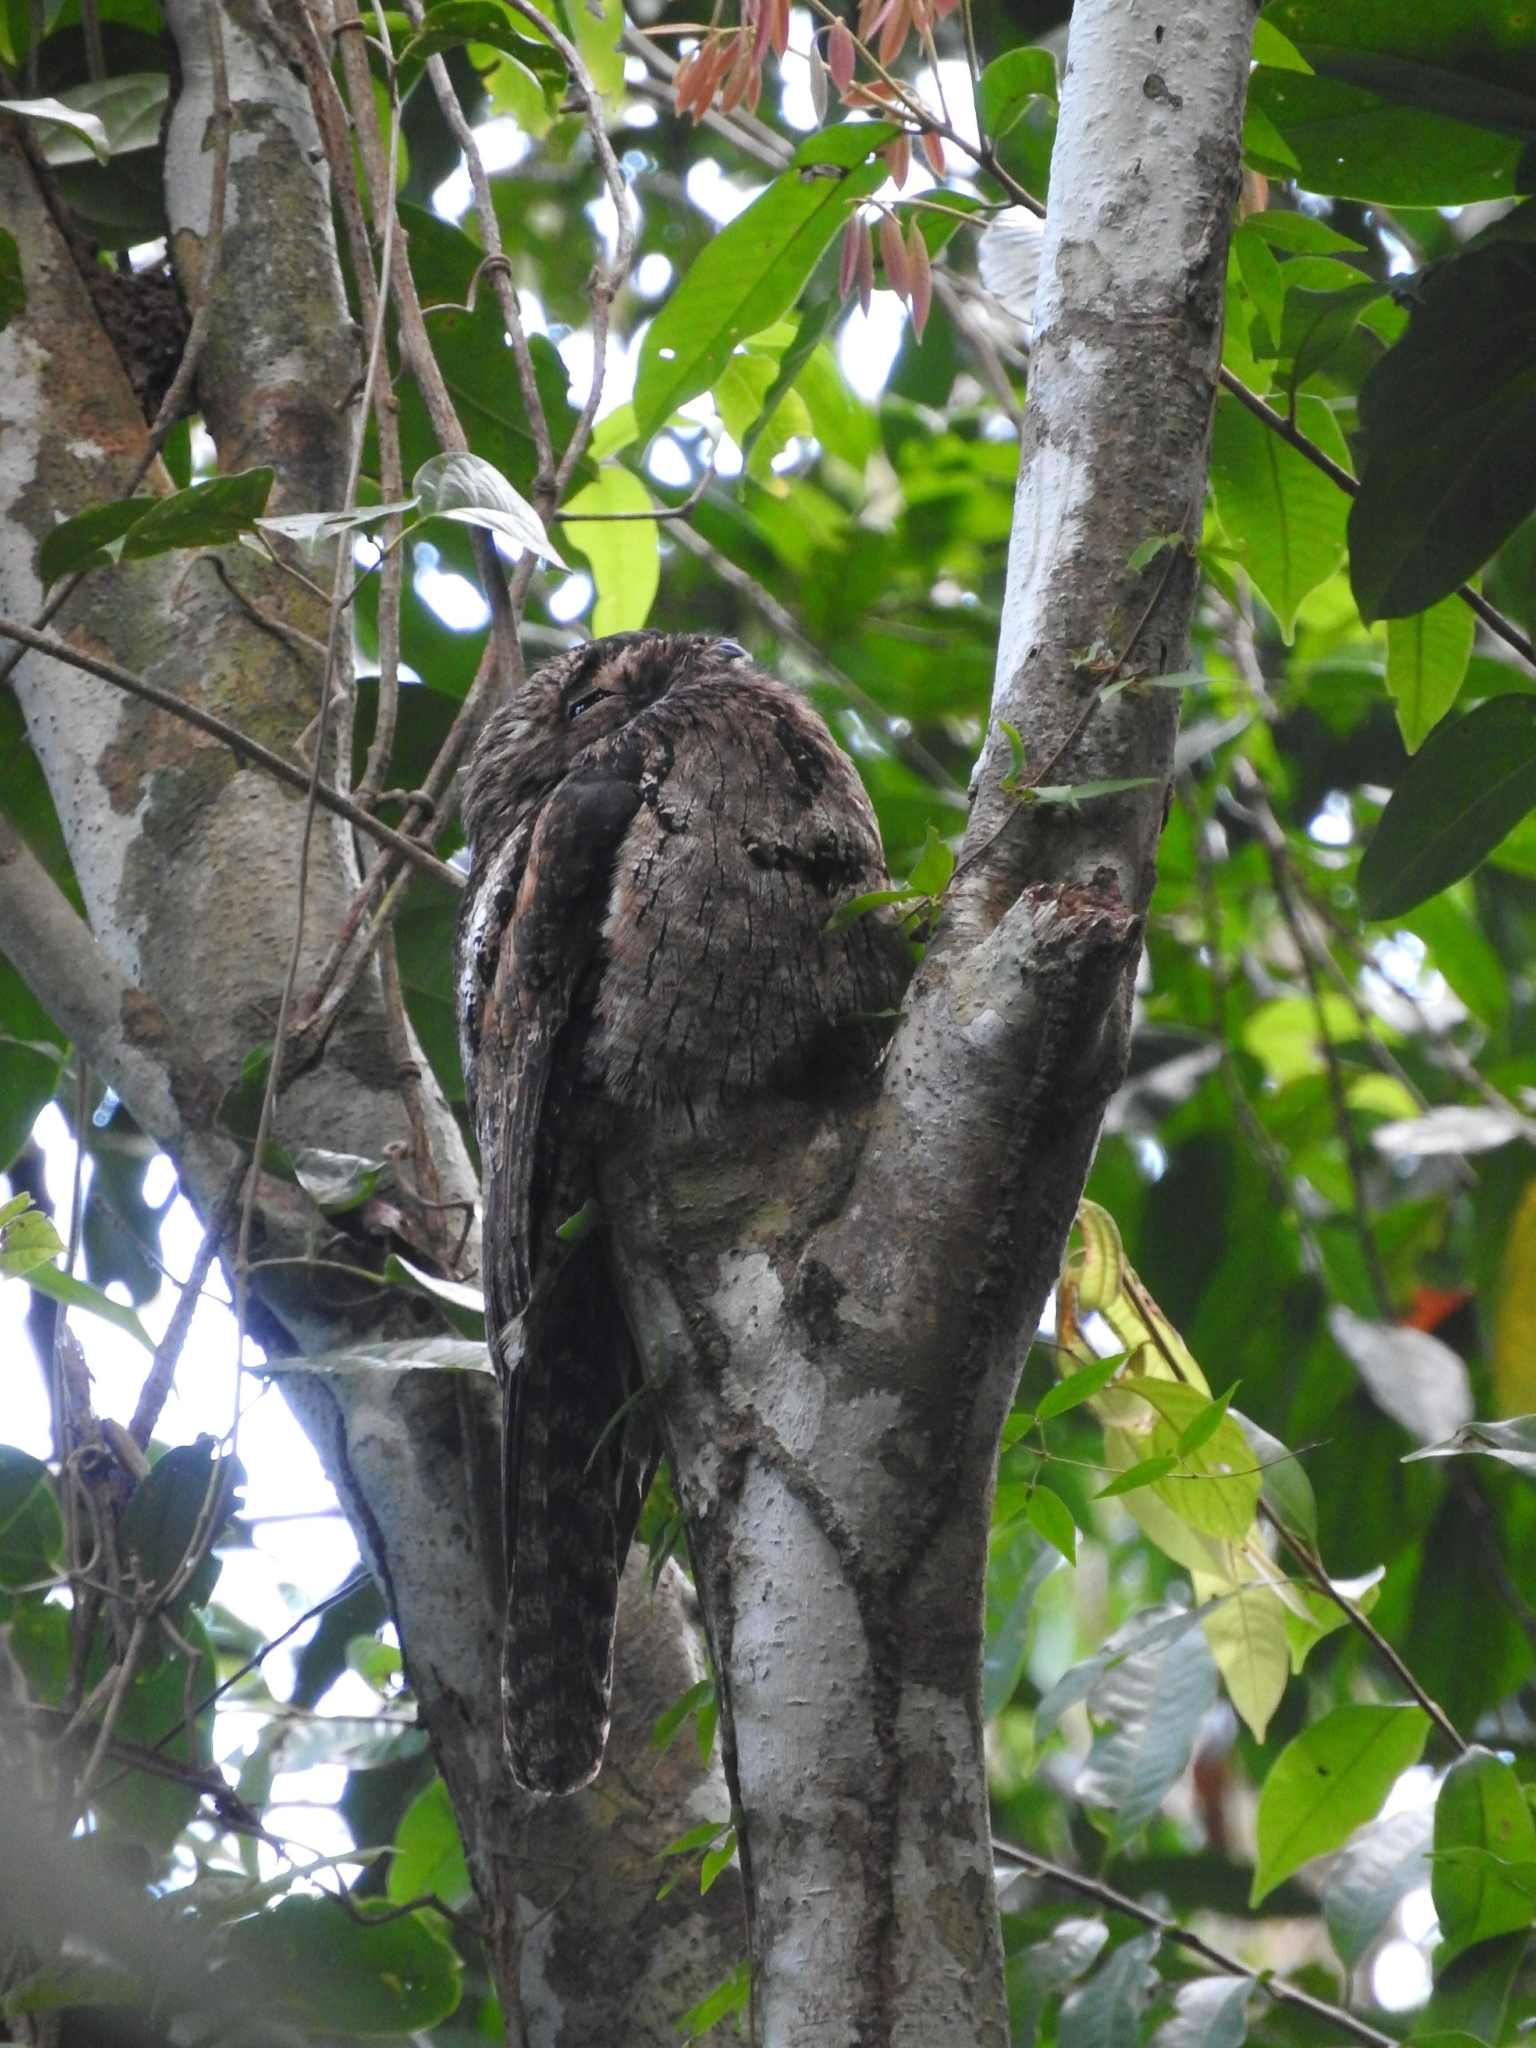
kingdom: Animalia
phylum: Chordata
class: Aves
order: Nyctibiiformes
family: Nyctibiidae
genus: Nyctibius
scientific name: Nyctibius griseus
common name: Common potoo
